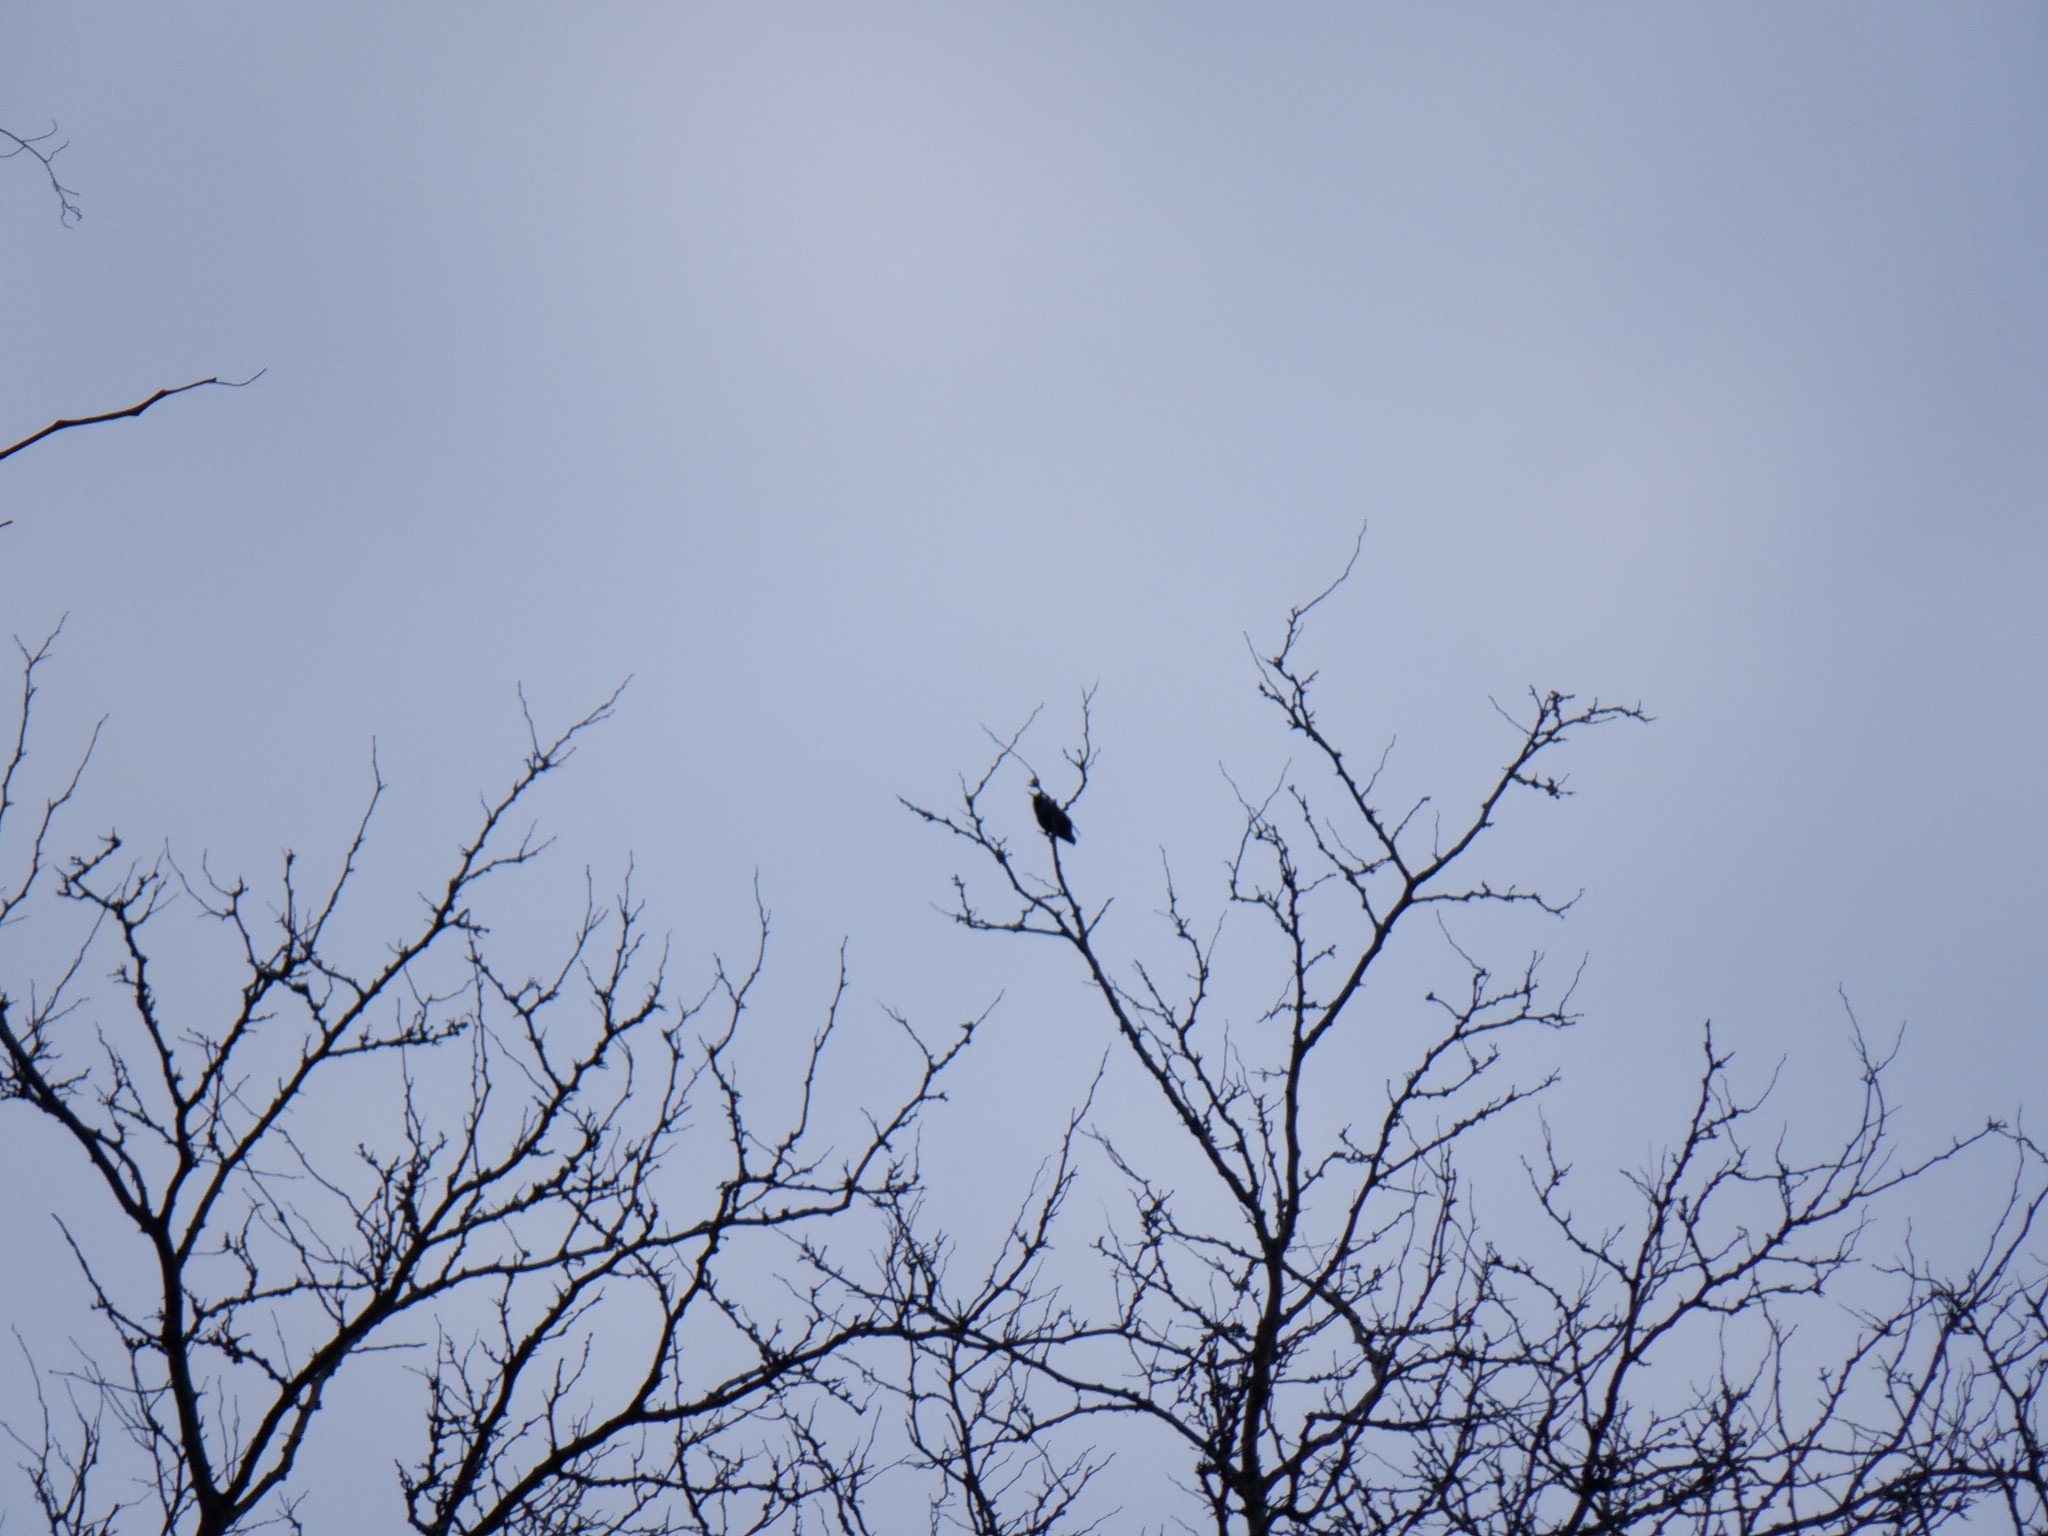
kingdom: Animalia
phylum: Chordata
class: Aves
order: Passeriformes
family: Sturnidae
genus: Sturnus
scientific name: Sturnus vulgaris
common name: Common starling
